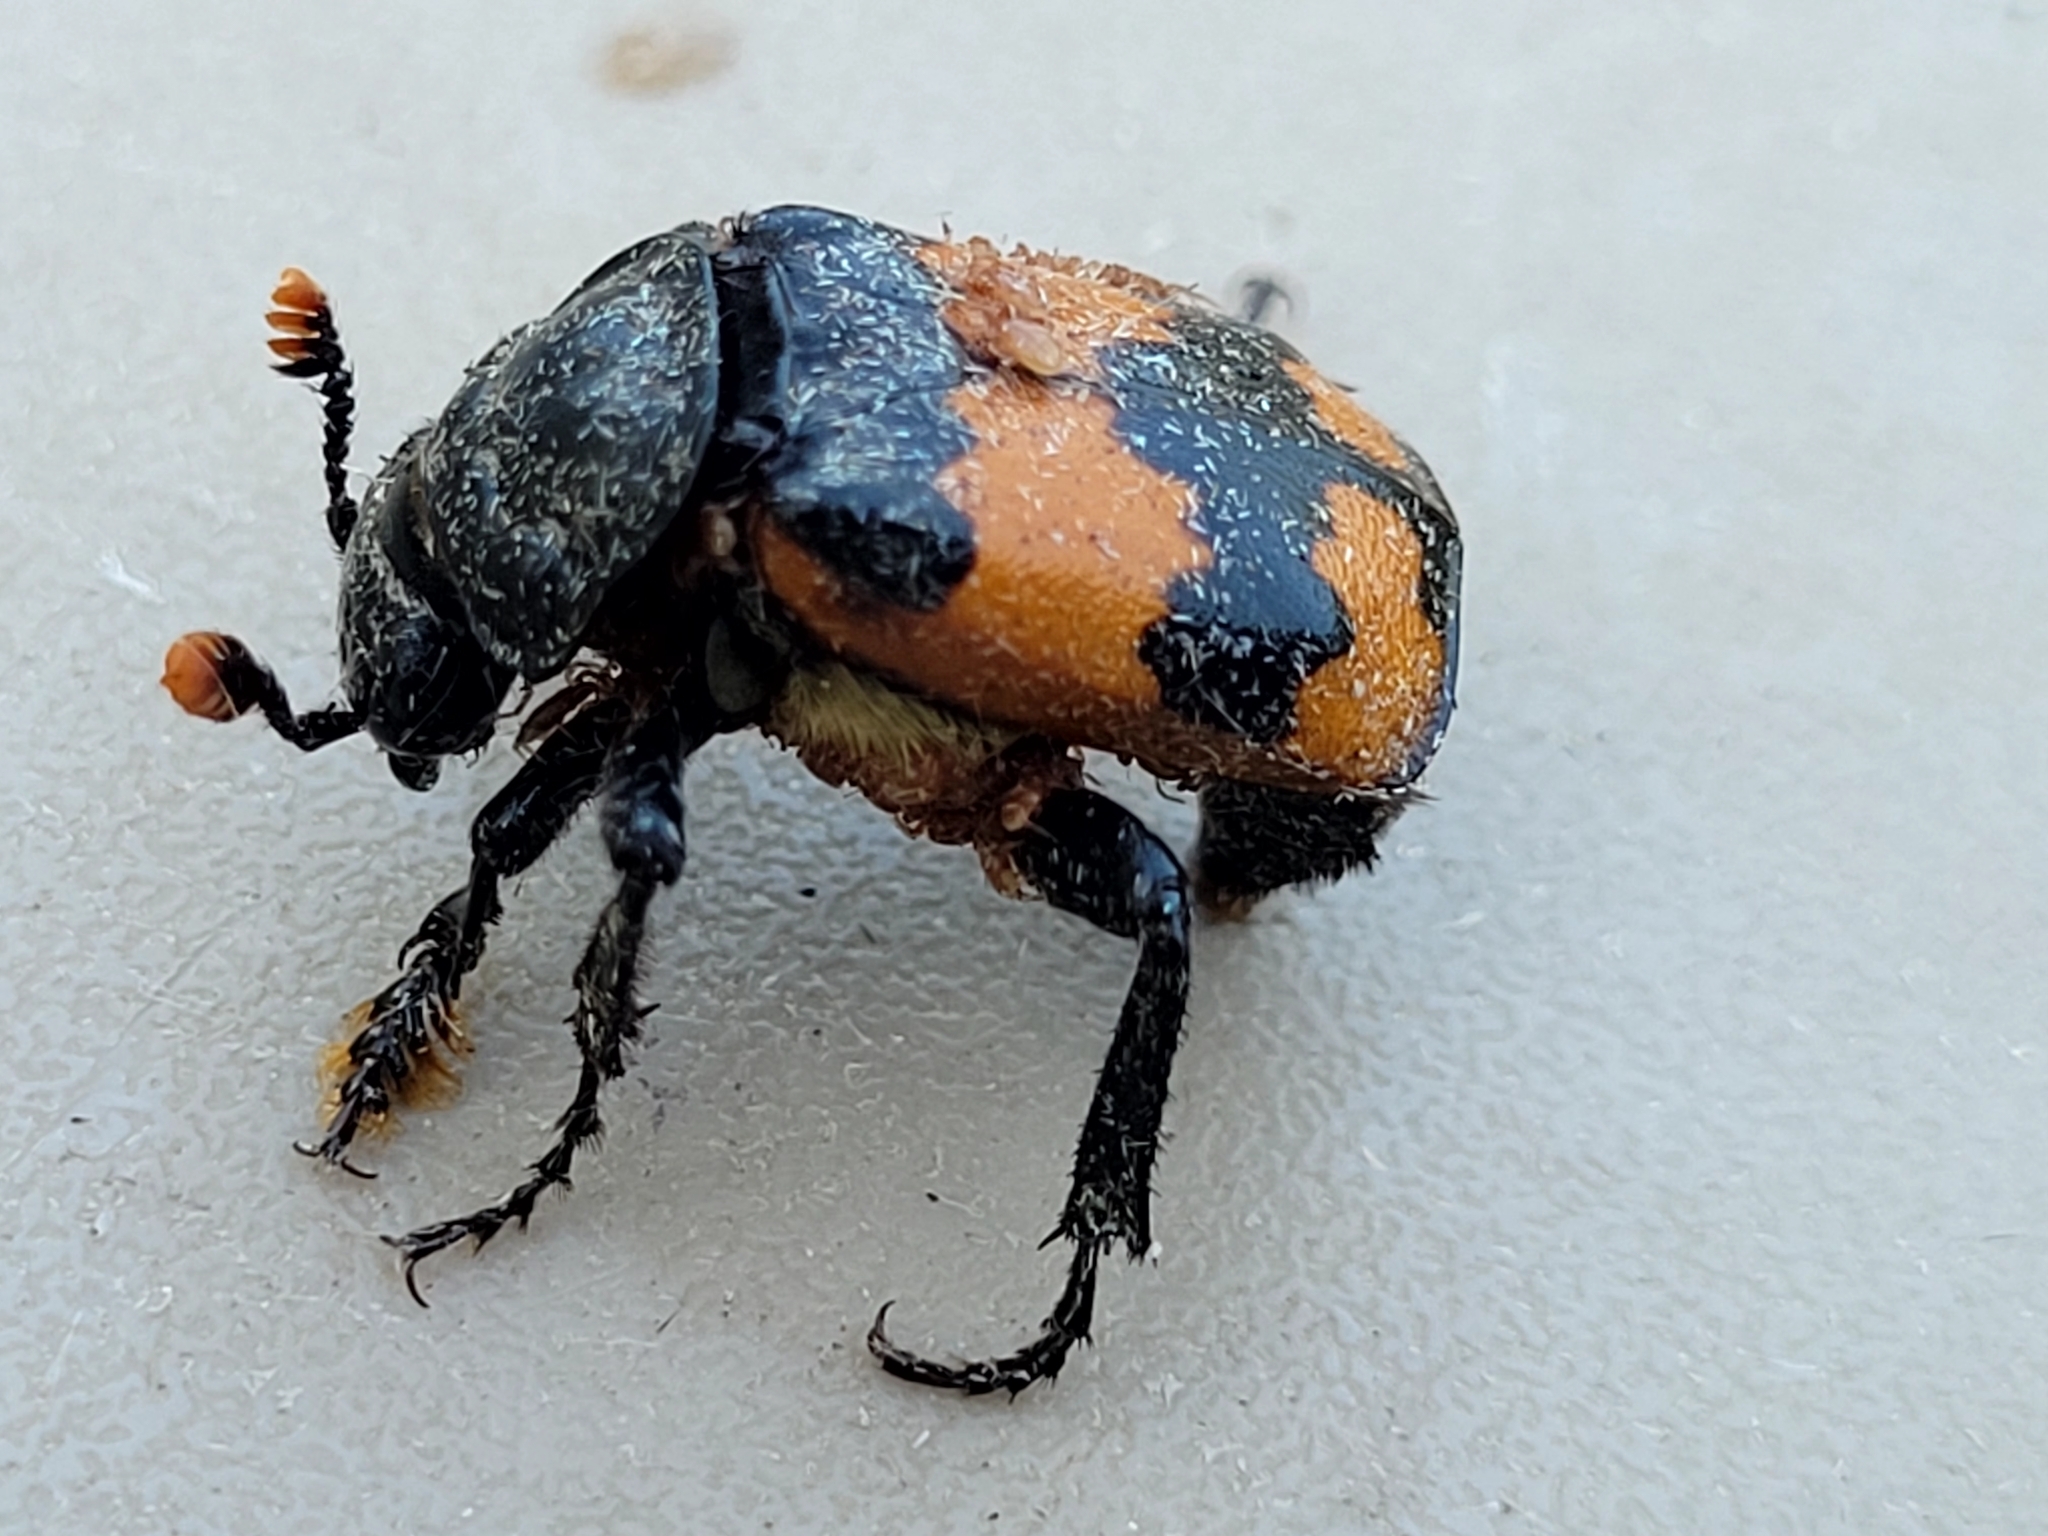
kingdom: Animalia
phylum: Arthropoda
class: Insecta
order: Coleoptera
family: Staphylinidae
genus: Nicrophorus
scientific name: Nicrophorus investigator
